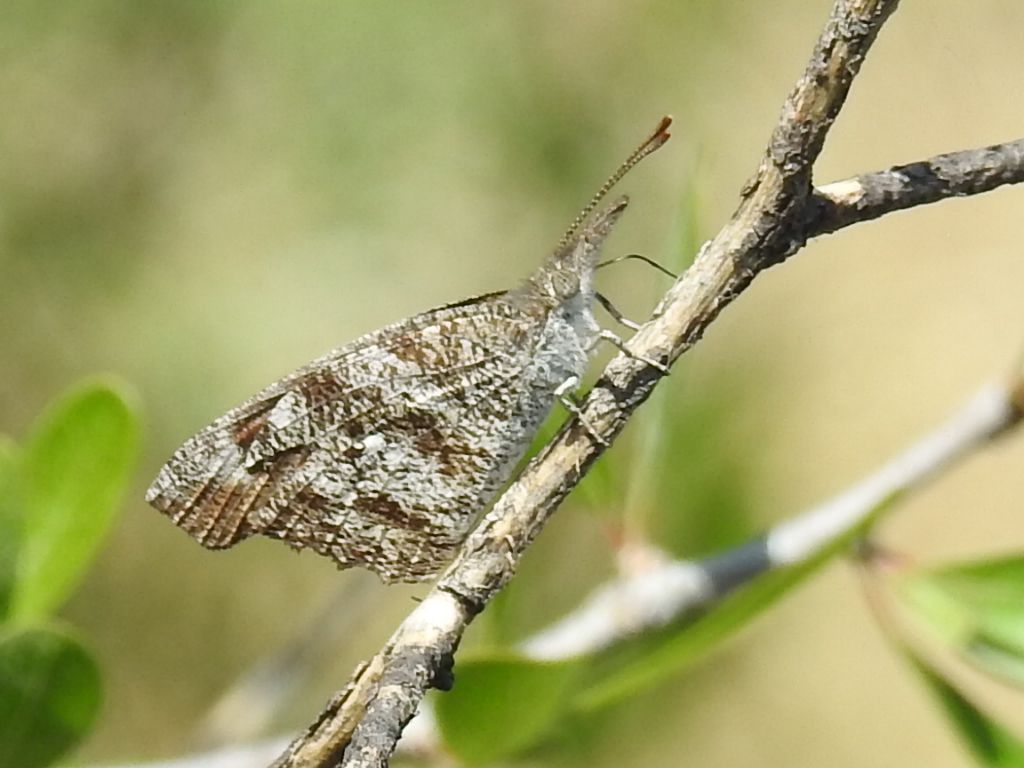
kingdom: Animalia
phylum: Arthropoda
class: Insecta
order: Lepidoptera
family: Nymphalidae
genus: Libytheana
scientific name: Libytheana carinenta
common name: American snout
